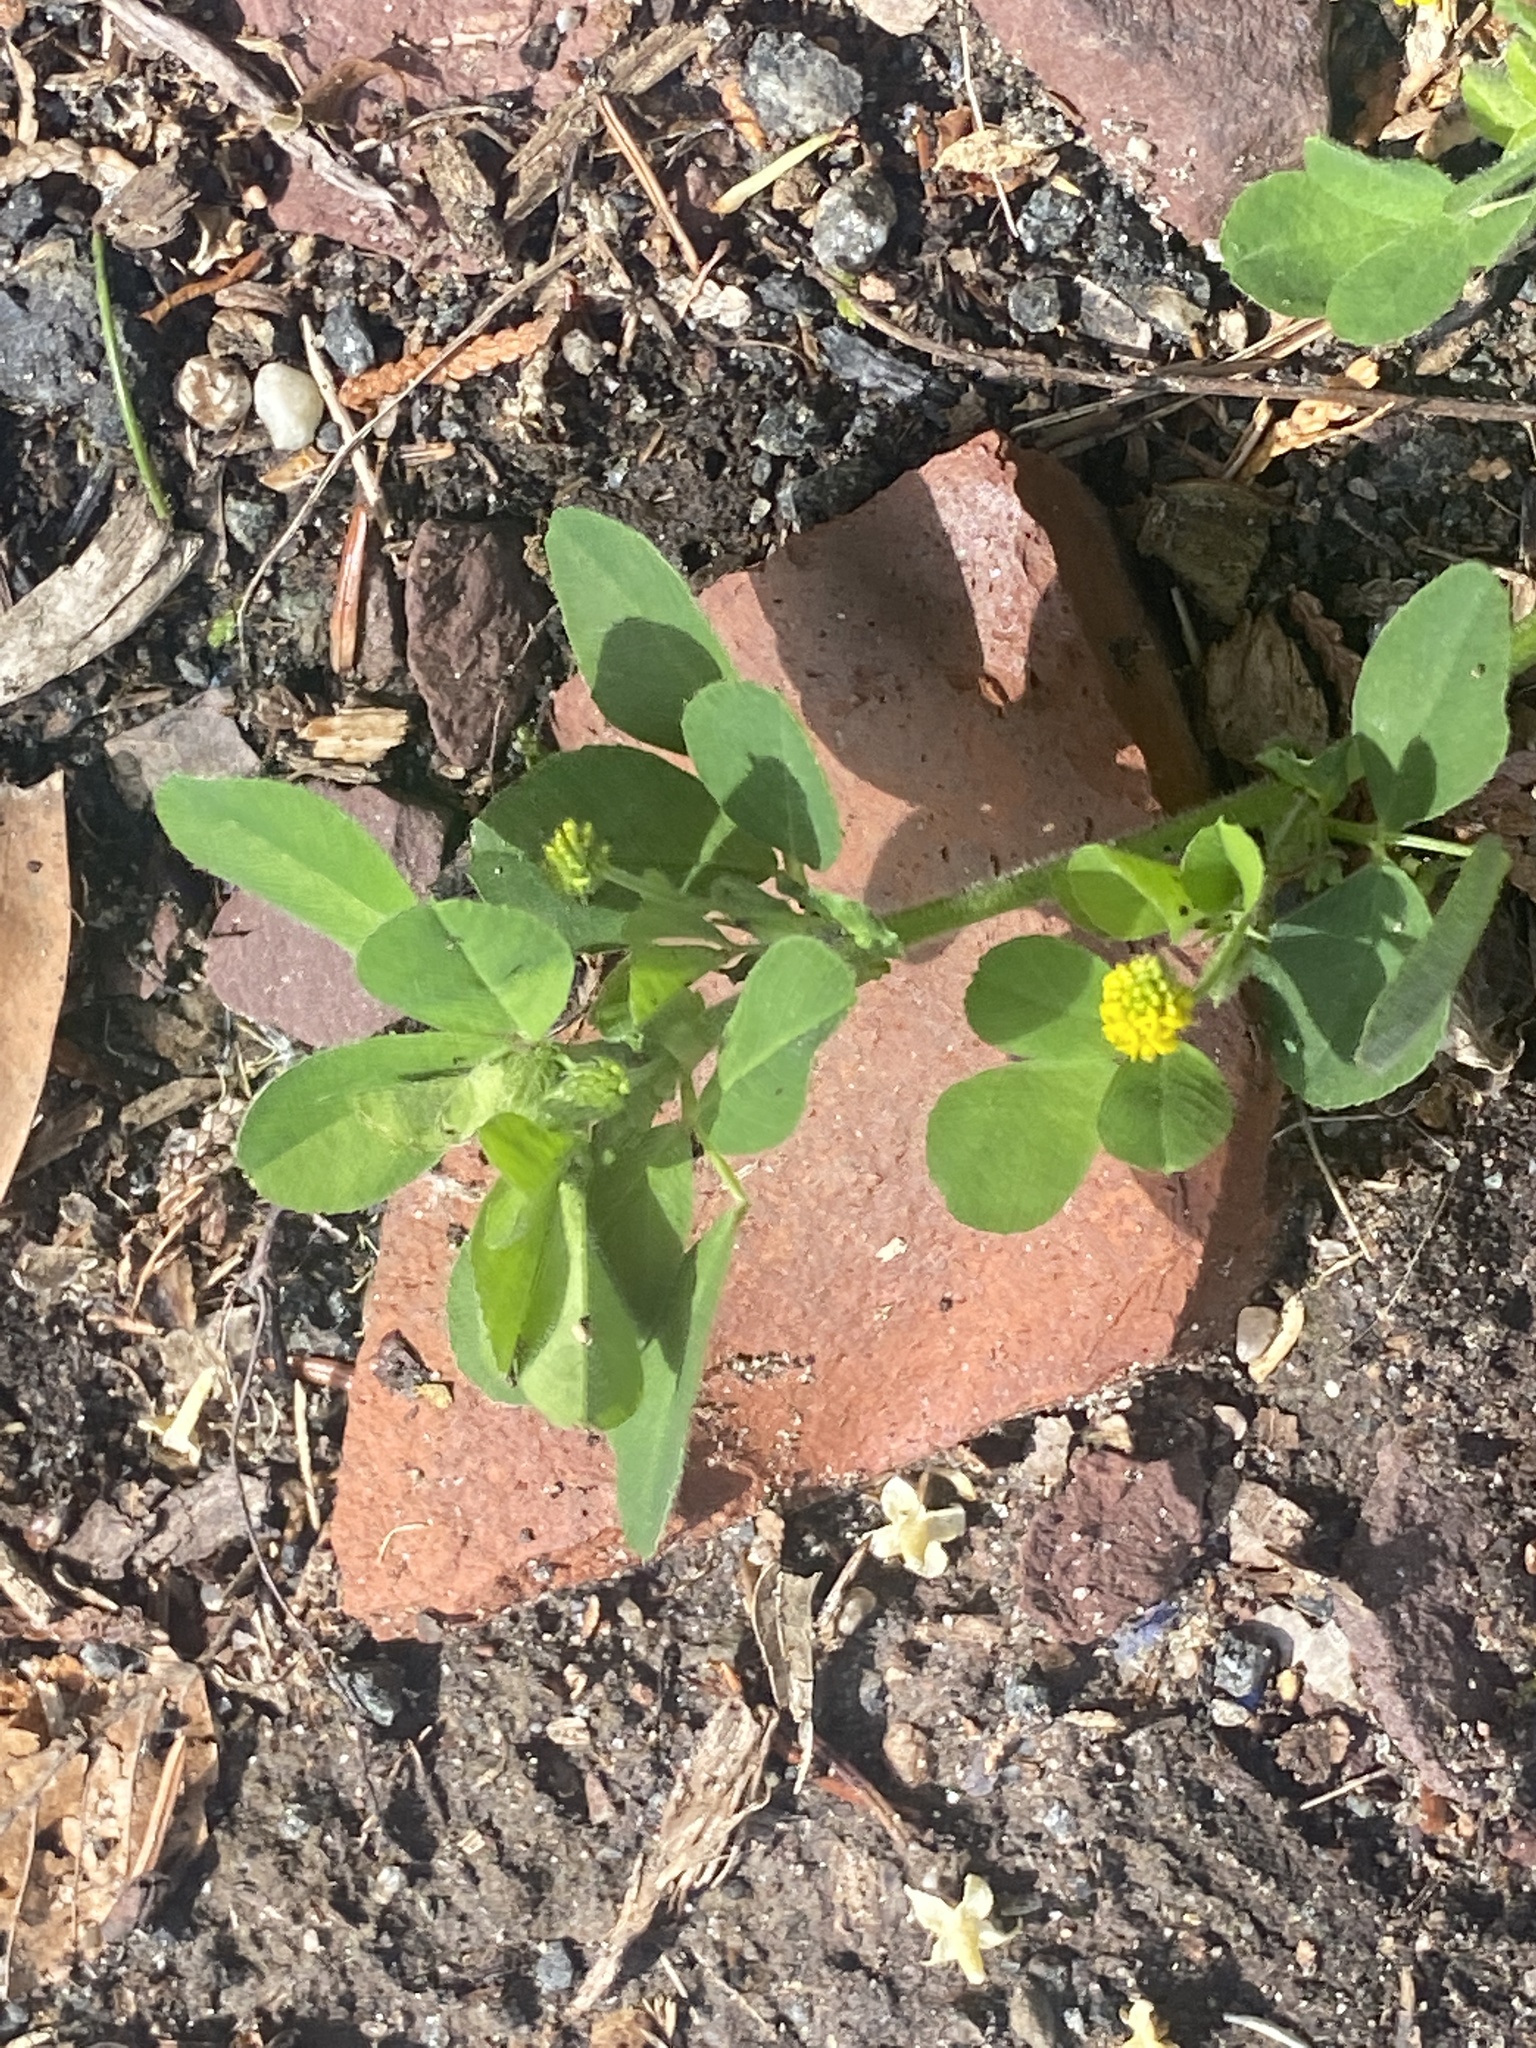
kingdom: Plantae
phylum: Tracheophyta
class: Magnoliopsida
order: Fabales
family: Fabaceae
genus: Medicago
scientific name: Medicago lupulina
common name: Black medick
